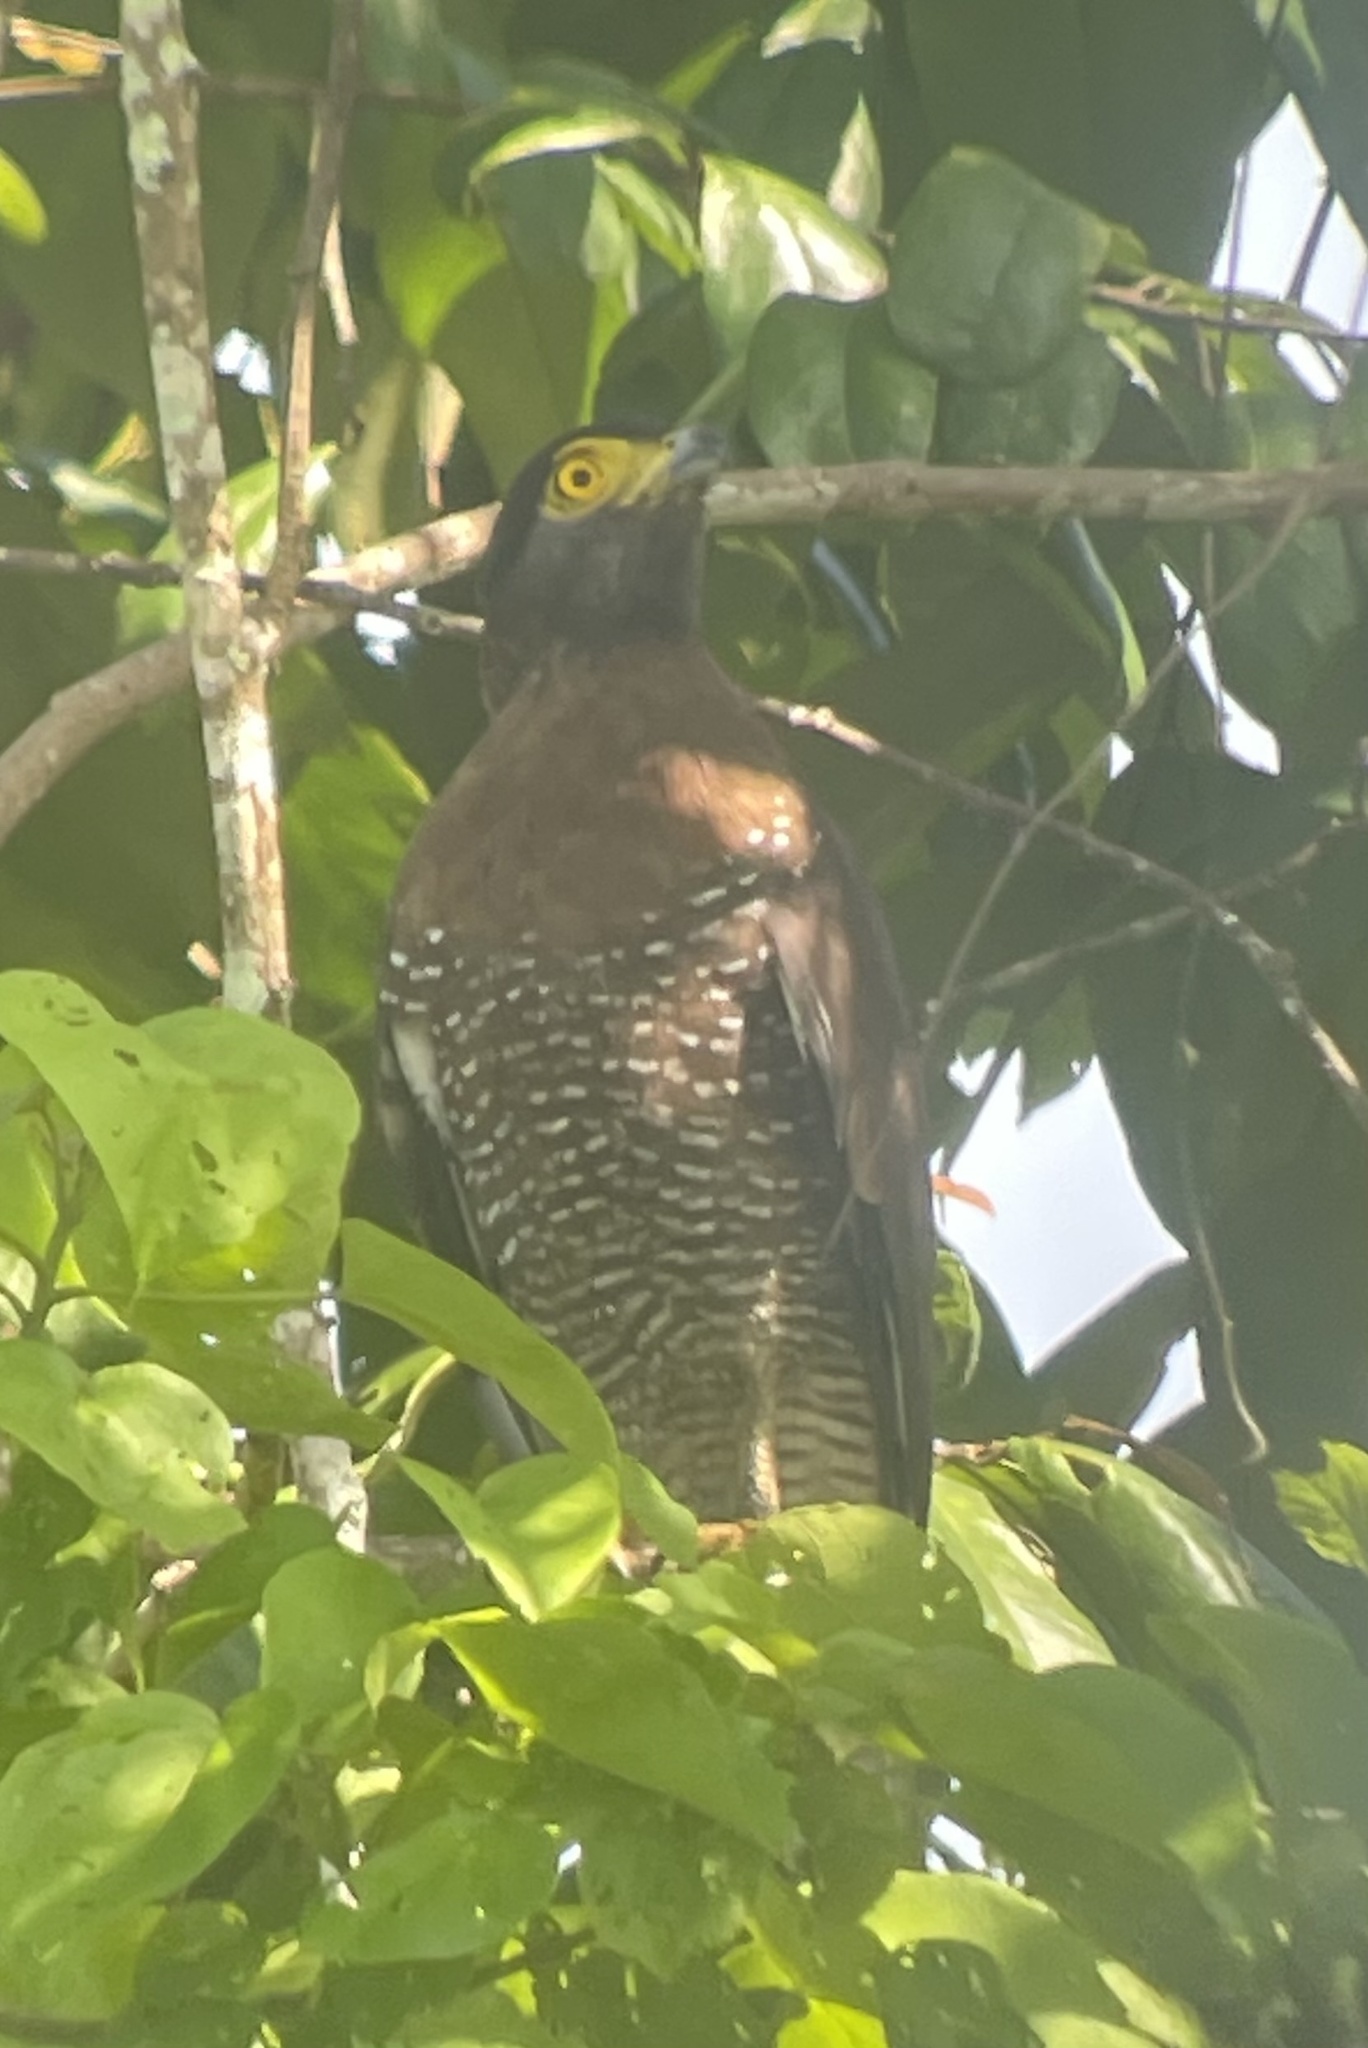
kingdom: Animalia
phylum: Chordata
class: Aves
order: Accipitriformes
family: Accipitridae
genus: Spilornis
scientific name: Spilornis rufipectus
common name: Sulawesi serpent eagle
